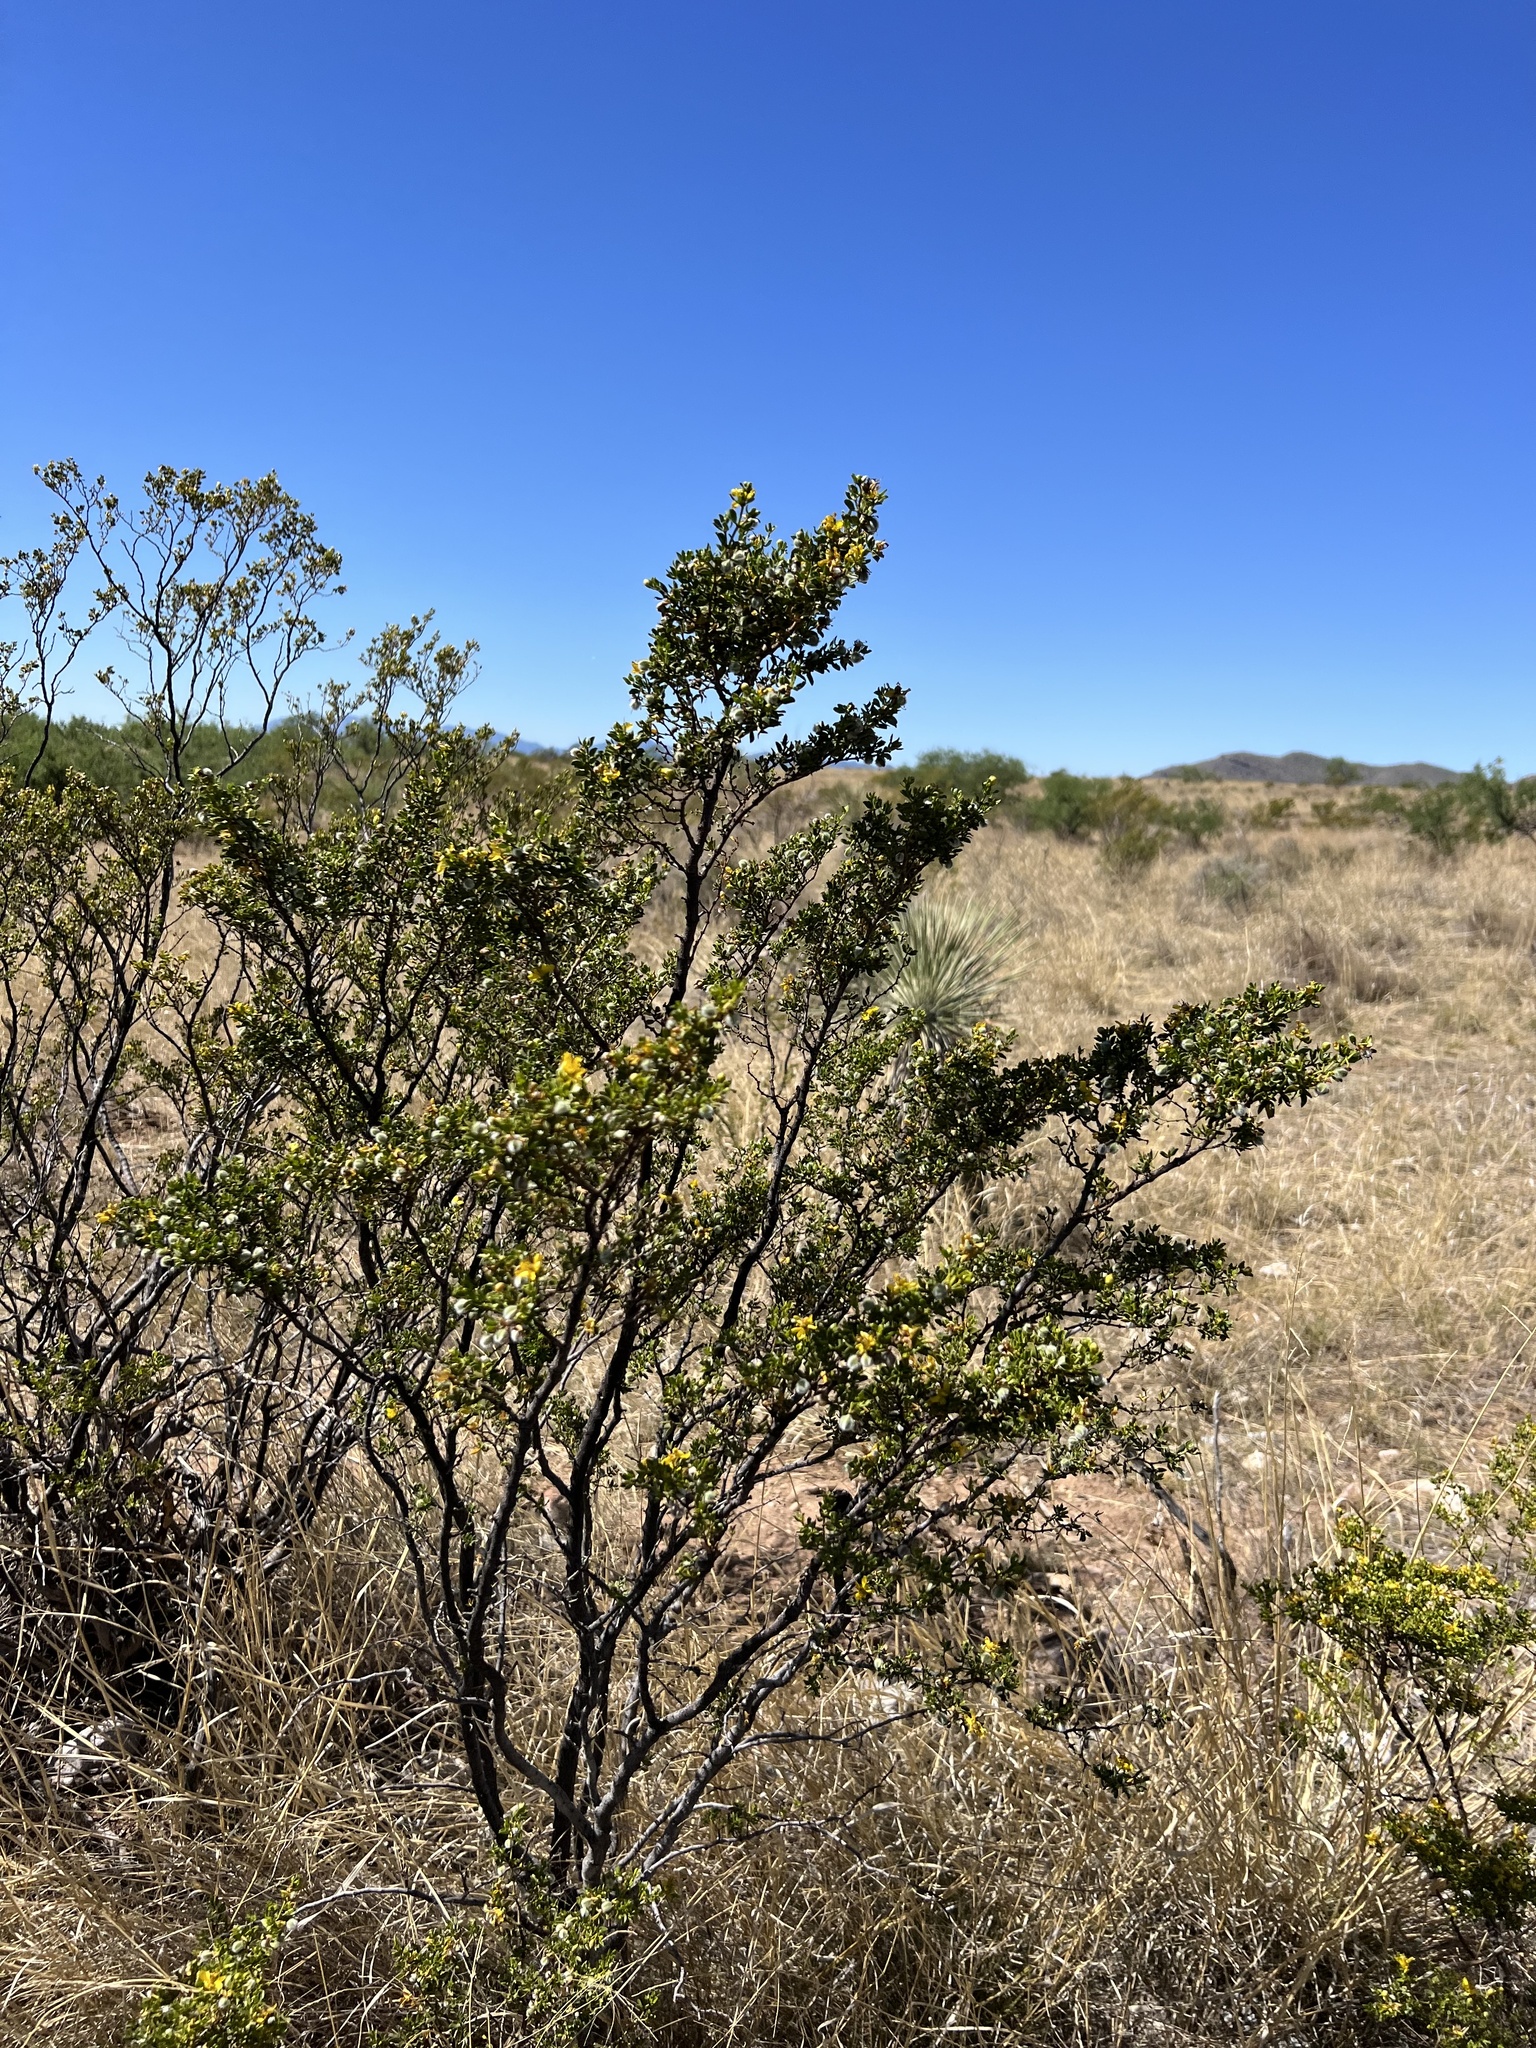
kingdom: Plantae
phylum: Tracheophyta
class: Magnoliopsida
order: Zygophyllales
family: Zygophyllaceae
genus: Larrea
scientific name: Larrea tridentata
